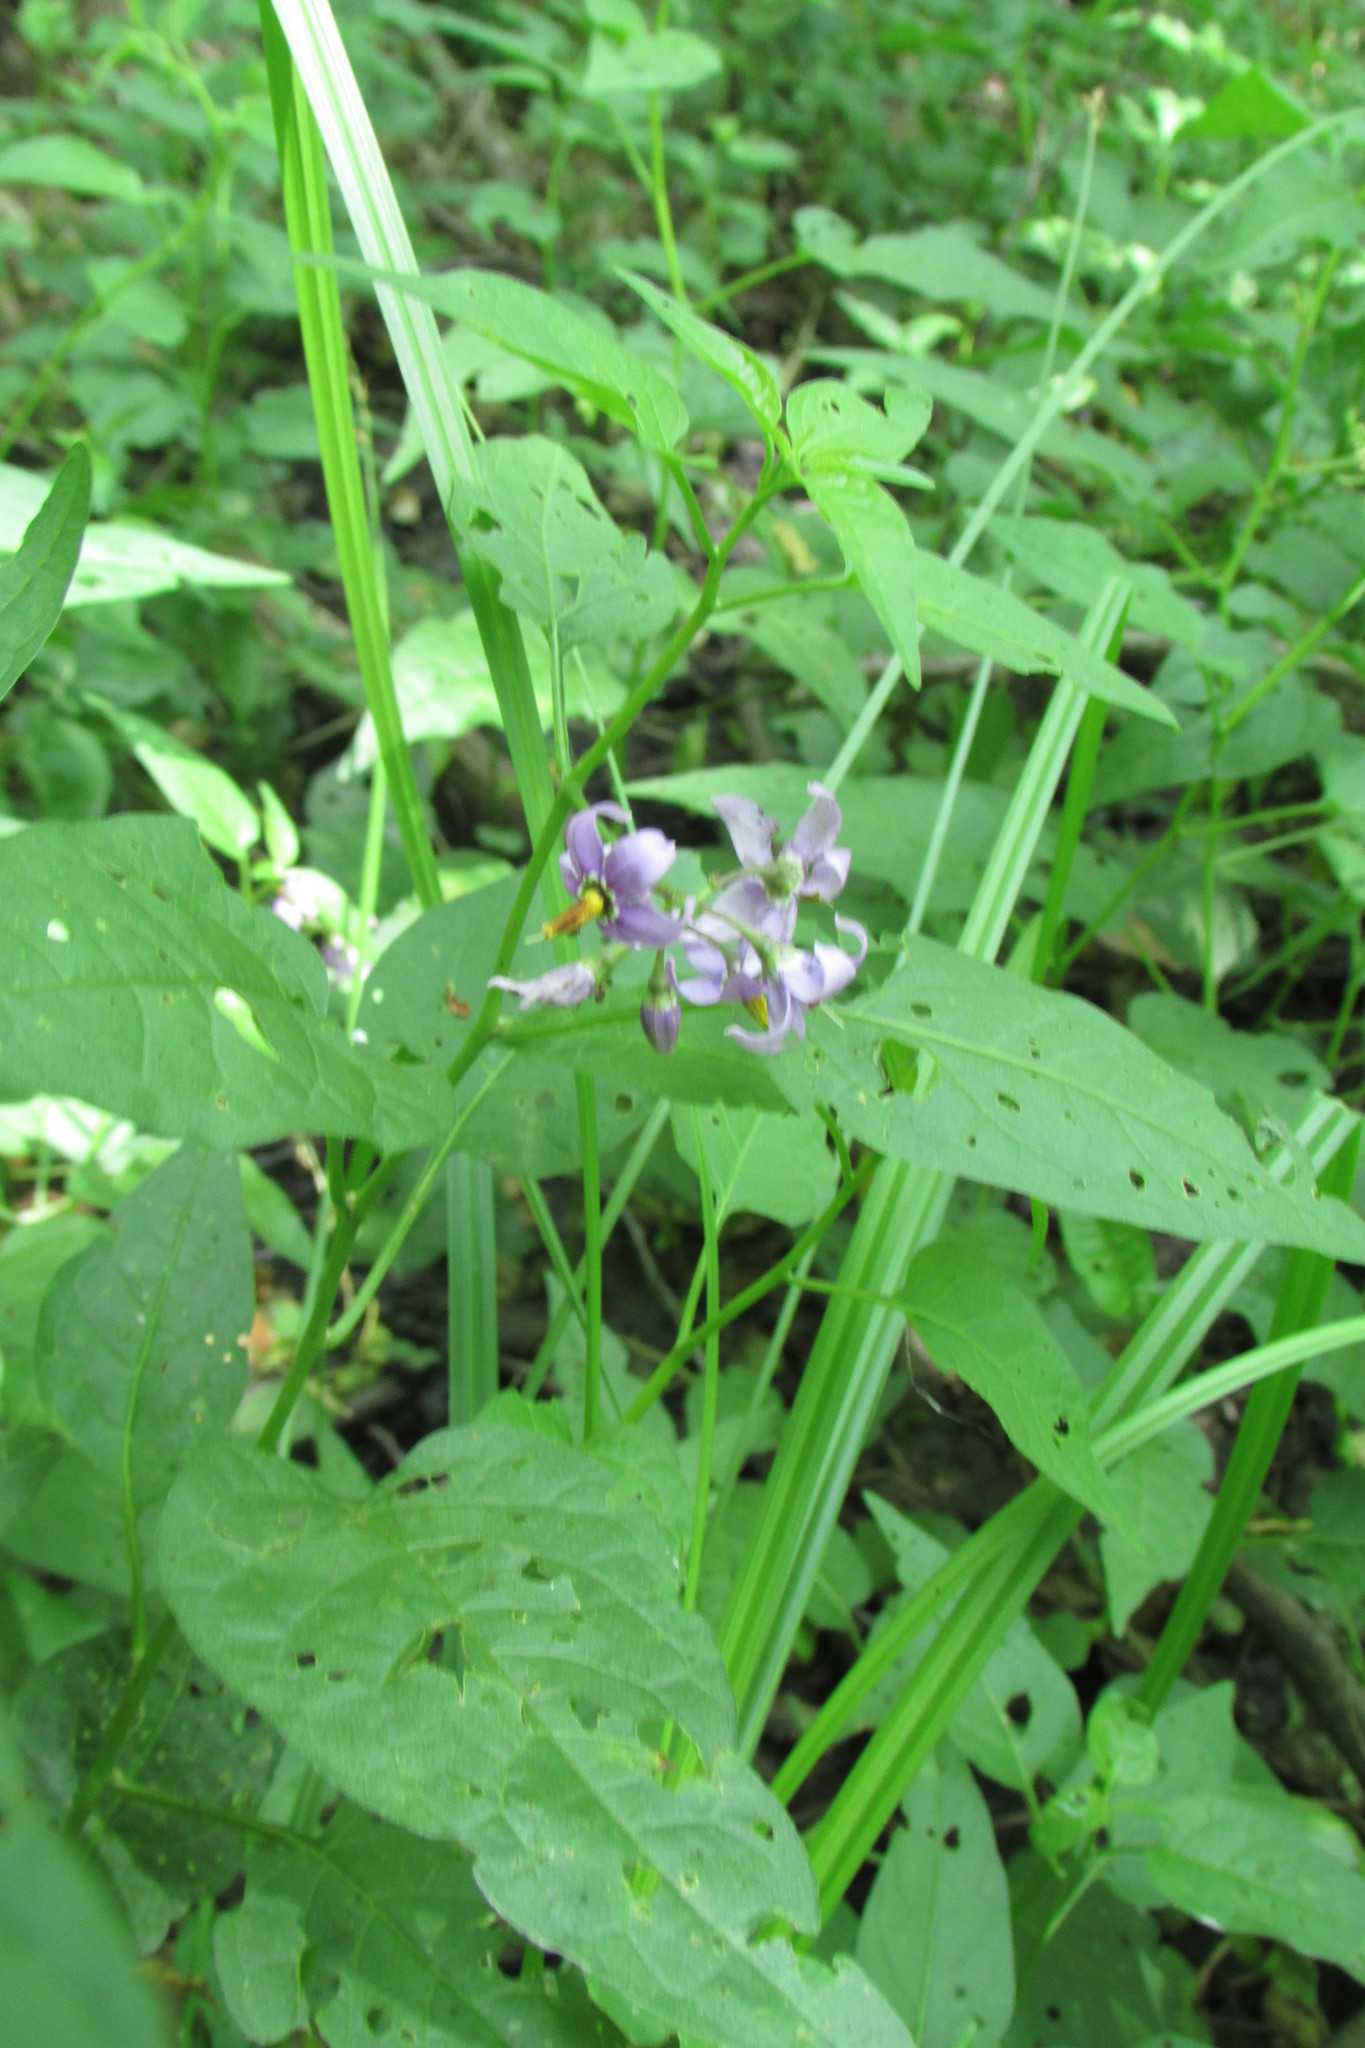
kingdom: Plantae
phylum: Tracheophyta
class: Magnoliopsida
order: Solanales
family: Solanaceae
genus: Solanum
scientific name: Solanum dulcamara
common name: Climbing nightshade
